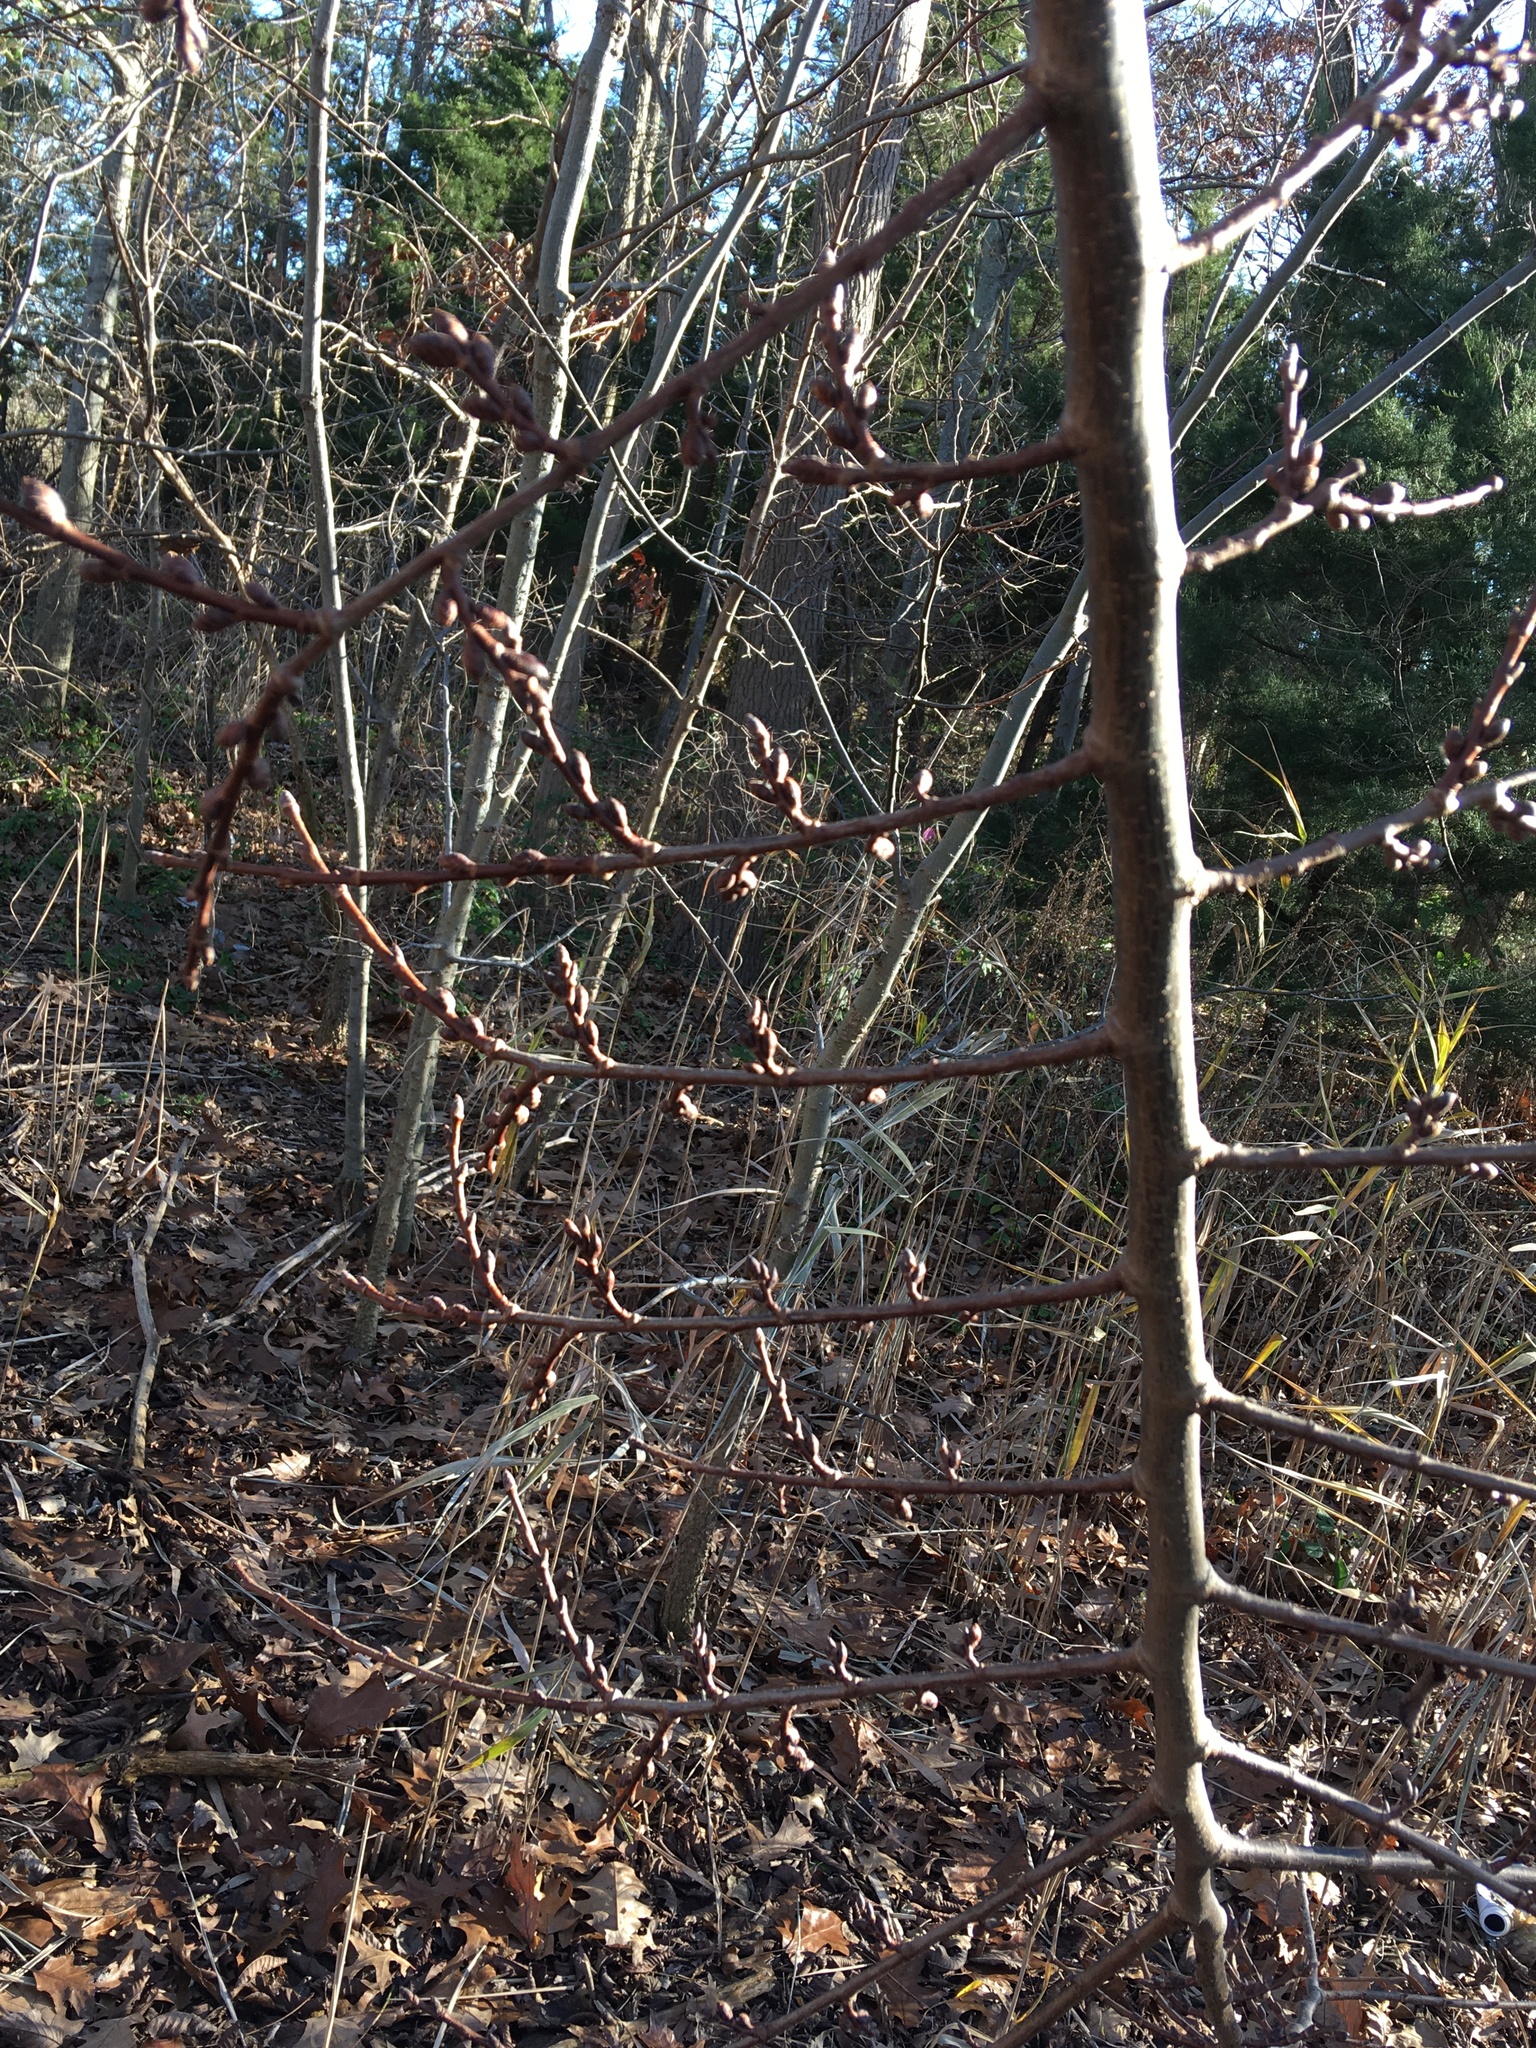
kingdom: Plantae
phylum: Tracheophyta
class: Magnoliopsida
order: Rosales
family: Ulmaceae
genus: Ulmus
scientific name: Ulmus americana
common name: American elm
